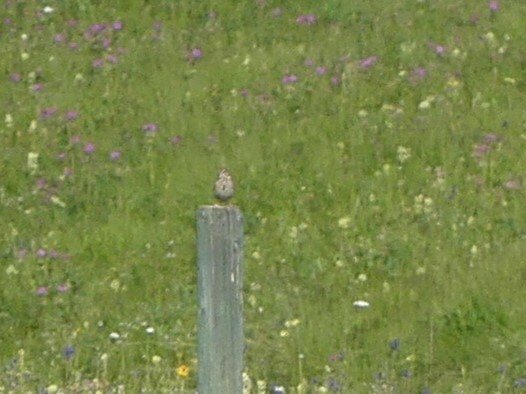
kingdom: Animalia
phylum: Chordata
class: Aves
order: Passeriformes
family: Passerellidae
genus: Pooecetes
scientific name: Pooecetes gramineus
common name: Vesper sparrow
